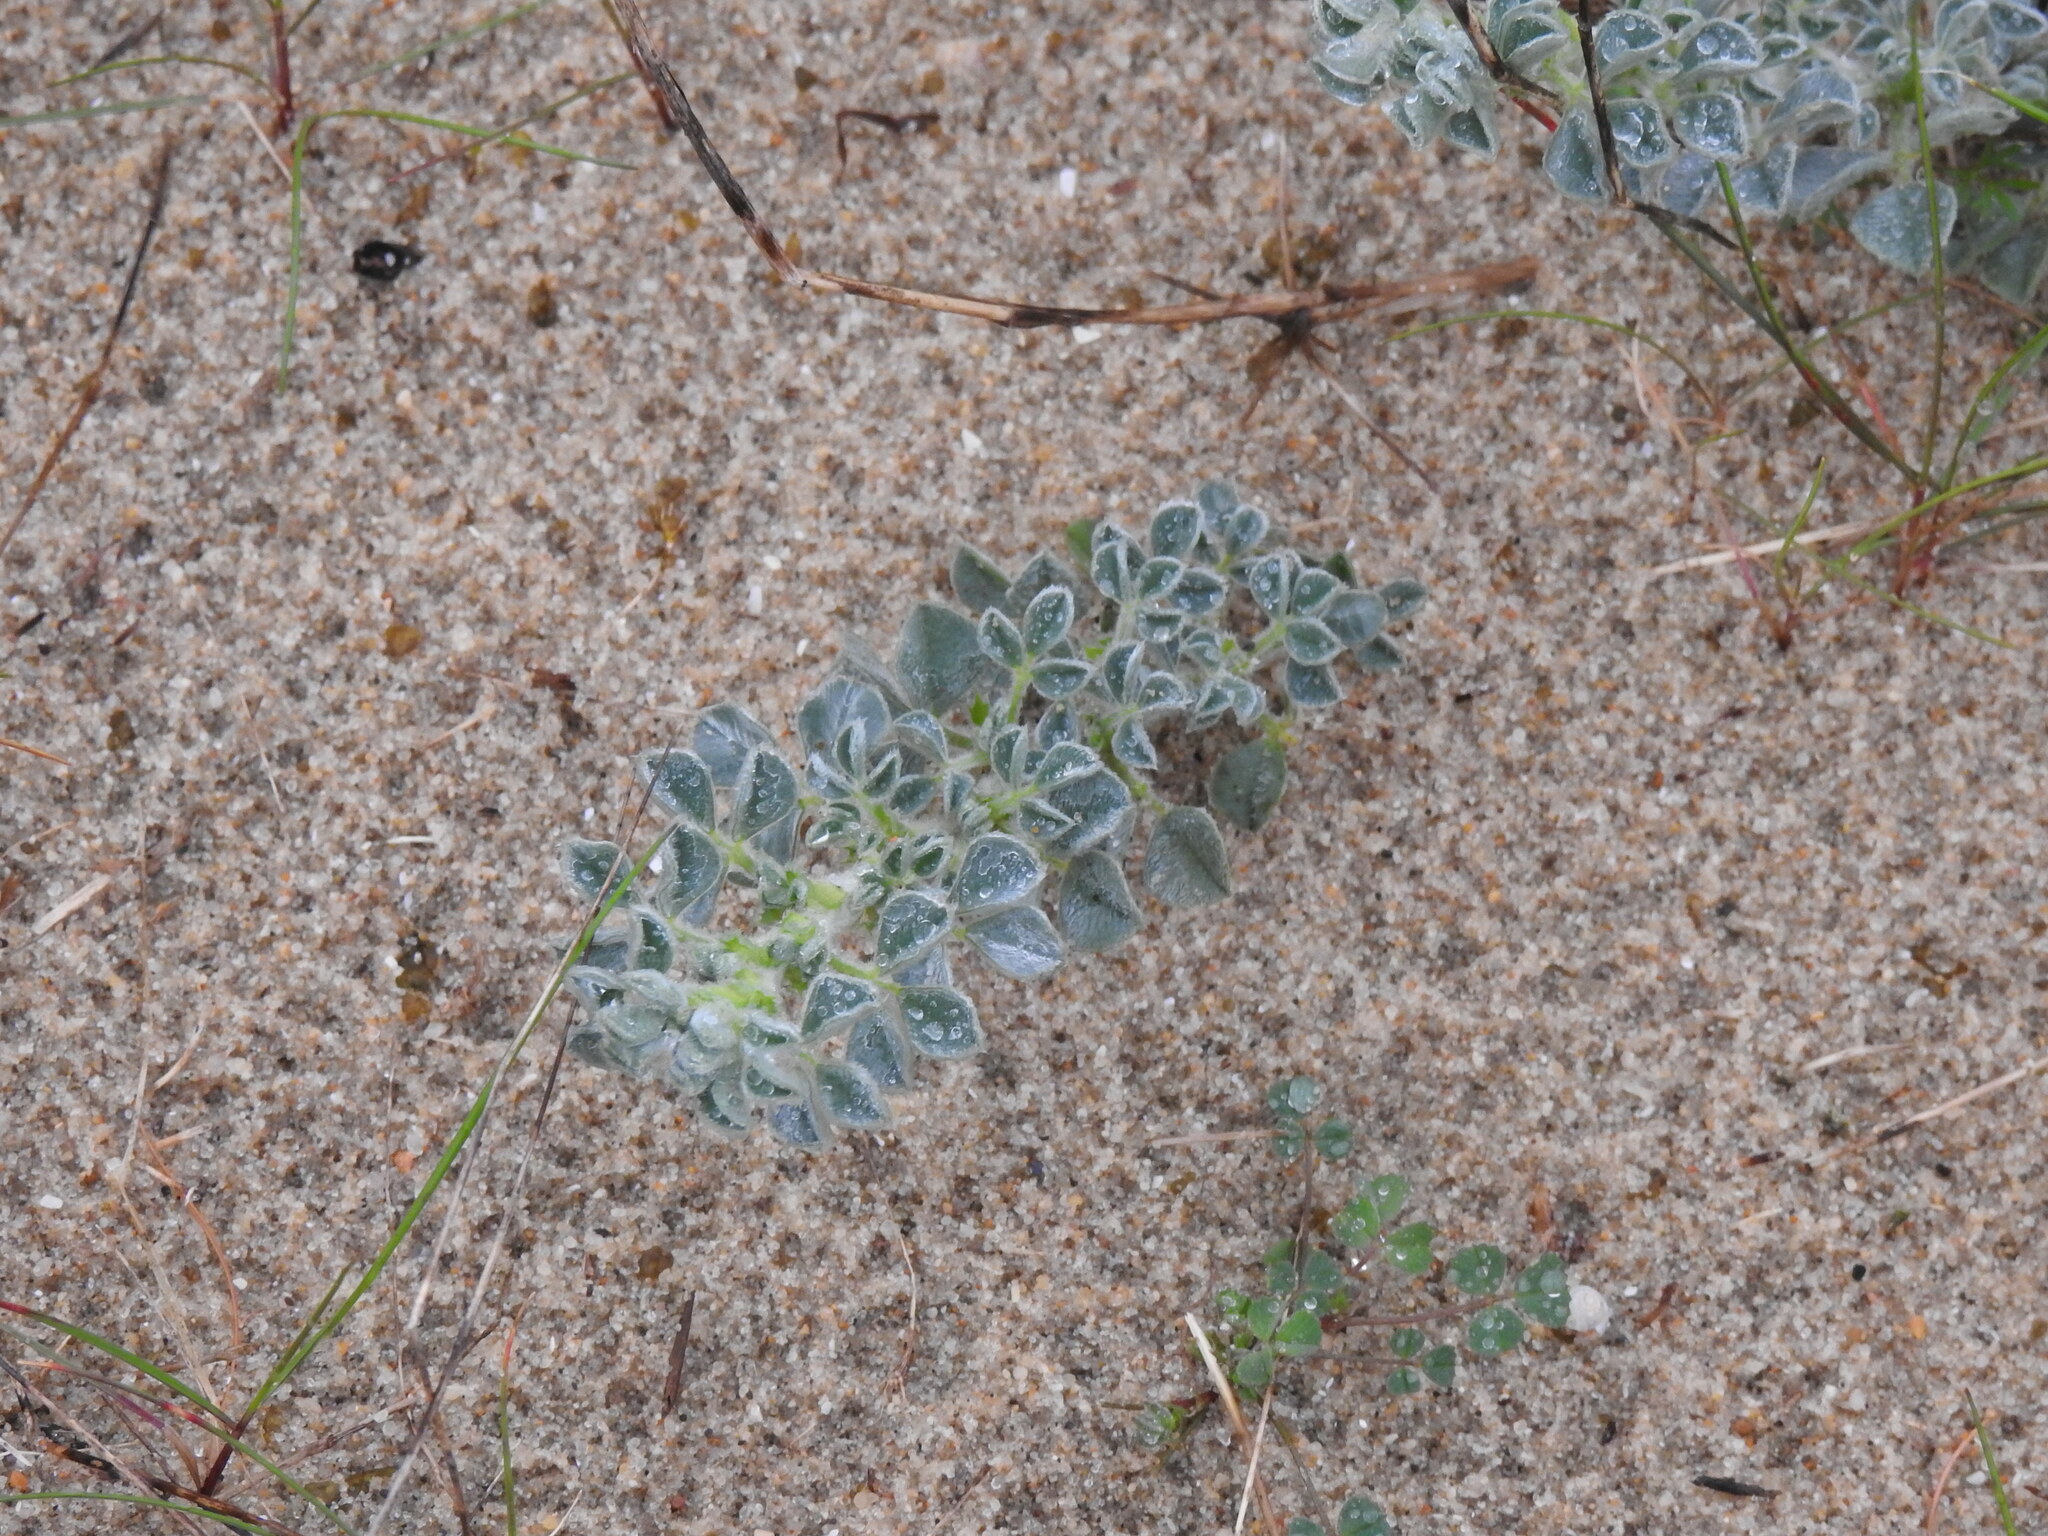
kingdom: Plantae
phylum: Tracheophyta
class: Magnoliopsida
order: Fabales
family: Fabaceae
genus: Medicago
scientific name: Medicago marina
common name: Sea medick
